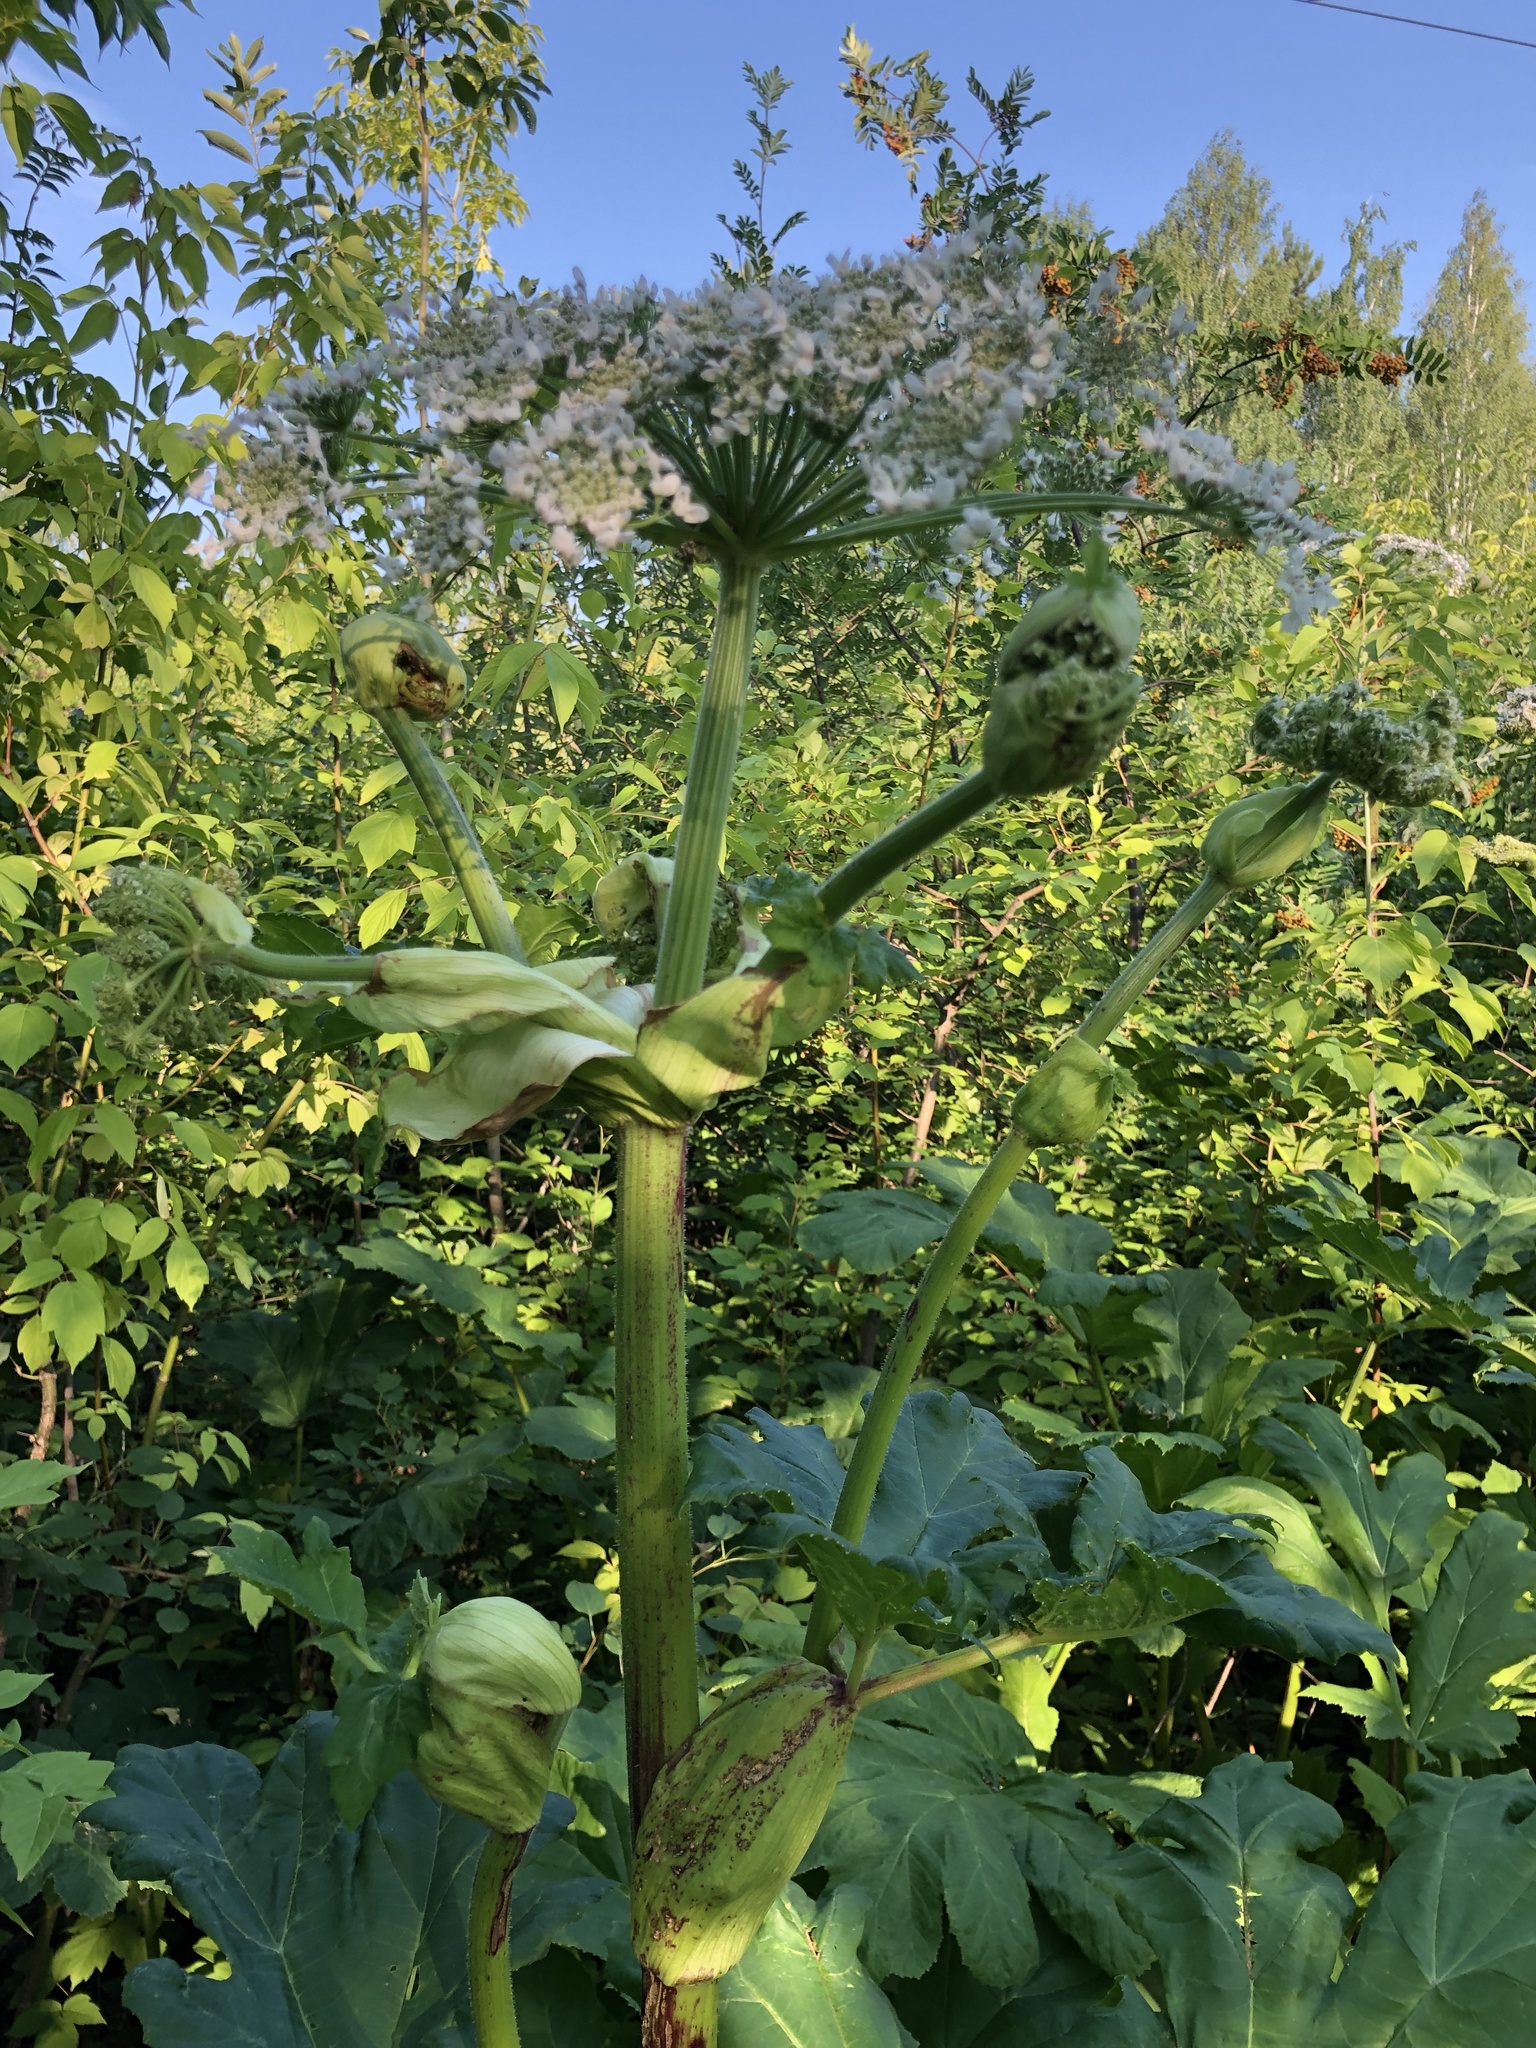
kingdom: Plantae
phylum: Tracheophyta
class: Magnoliopsida
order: Apiales
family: Apiaceae
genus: Heracleum
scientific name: Heracleum sosnowskyi
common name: Sosnowsky's hogweed
